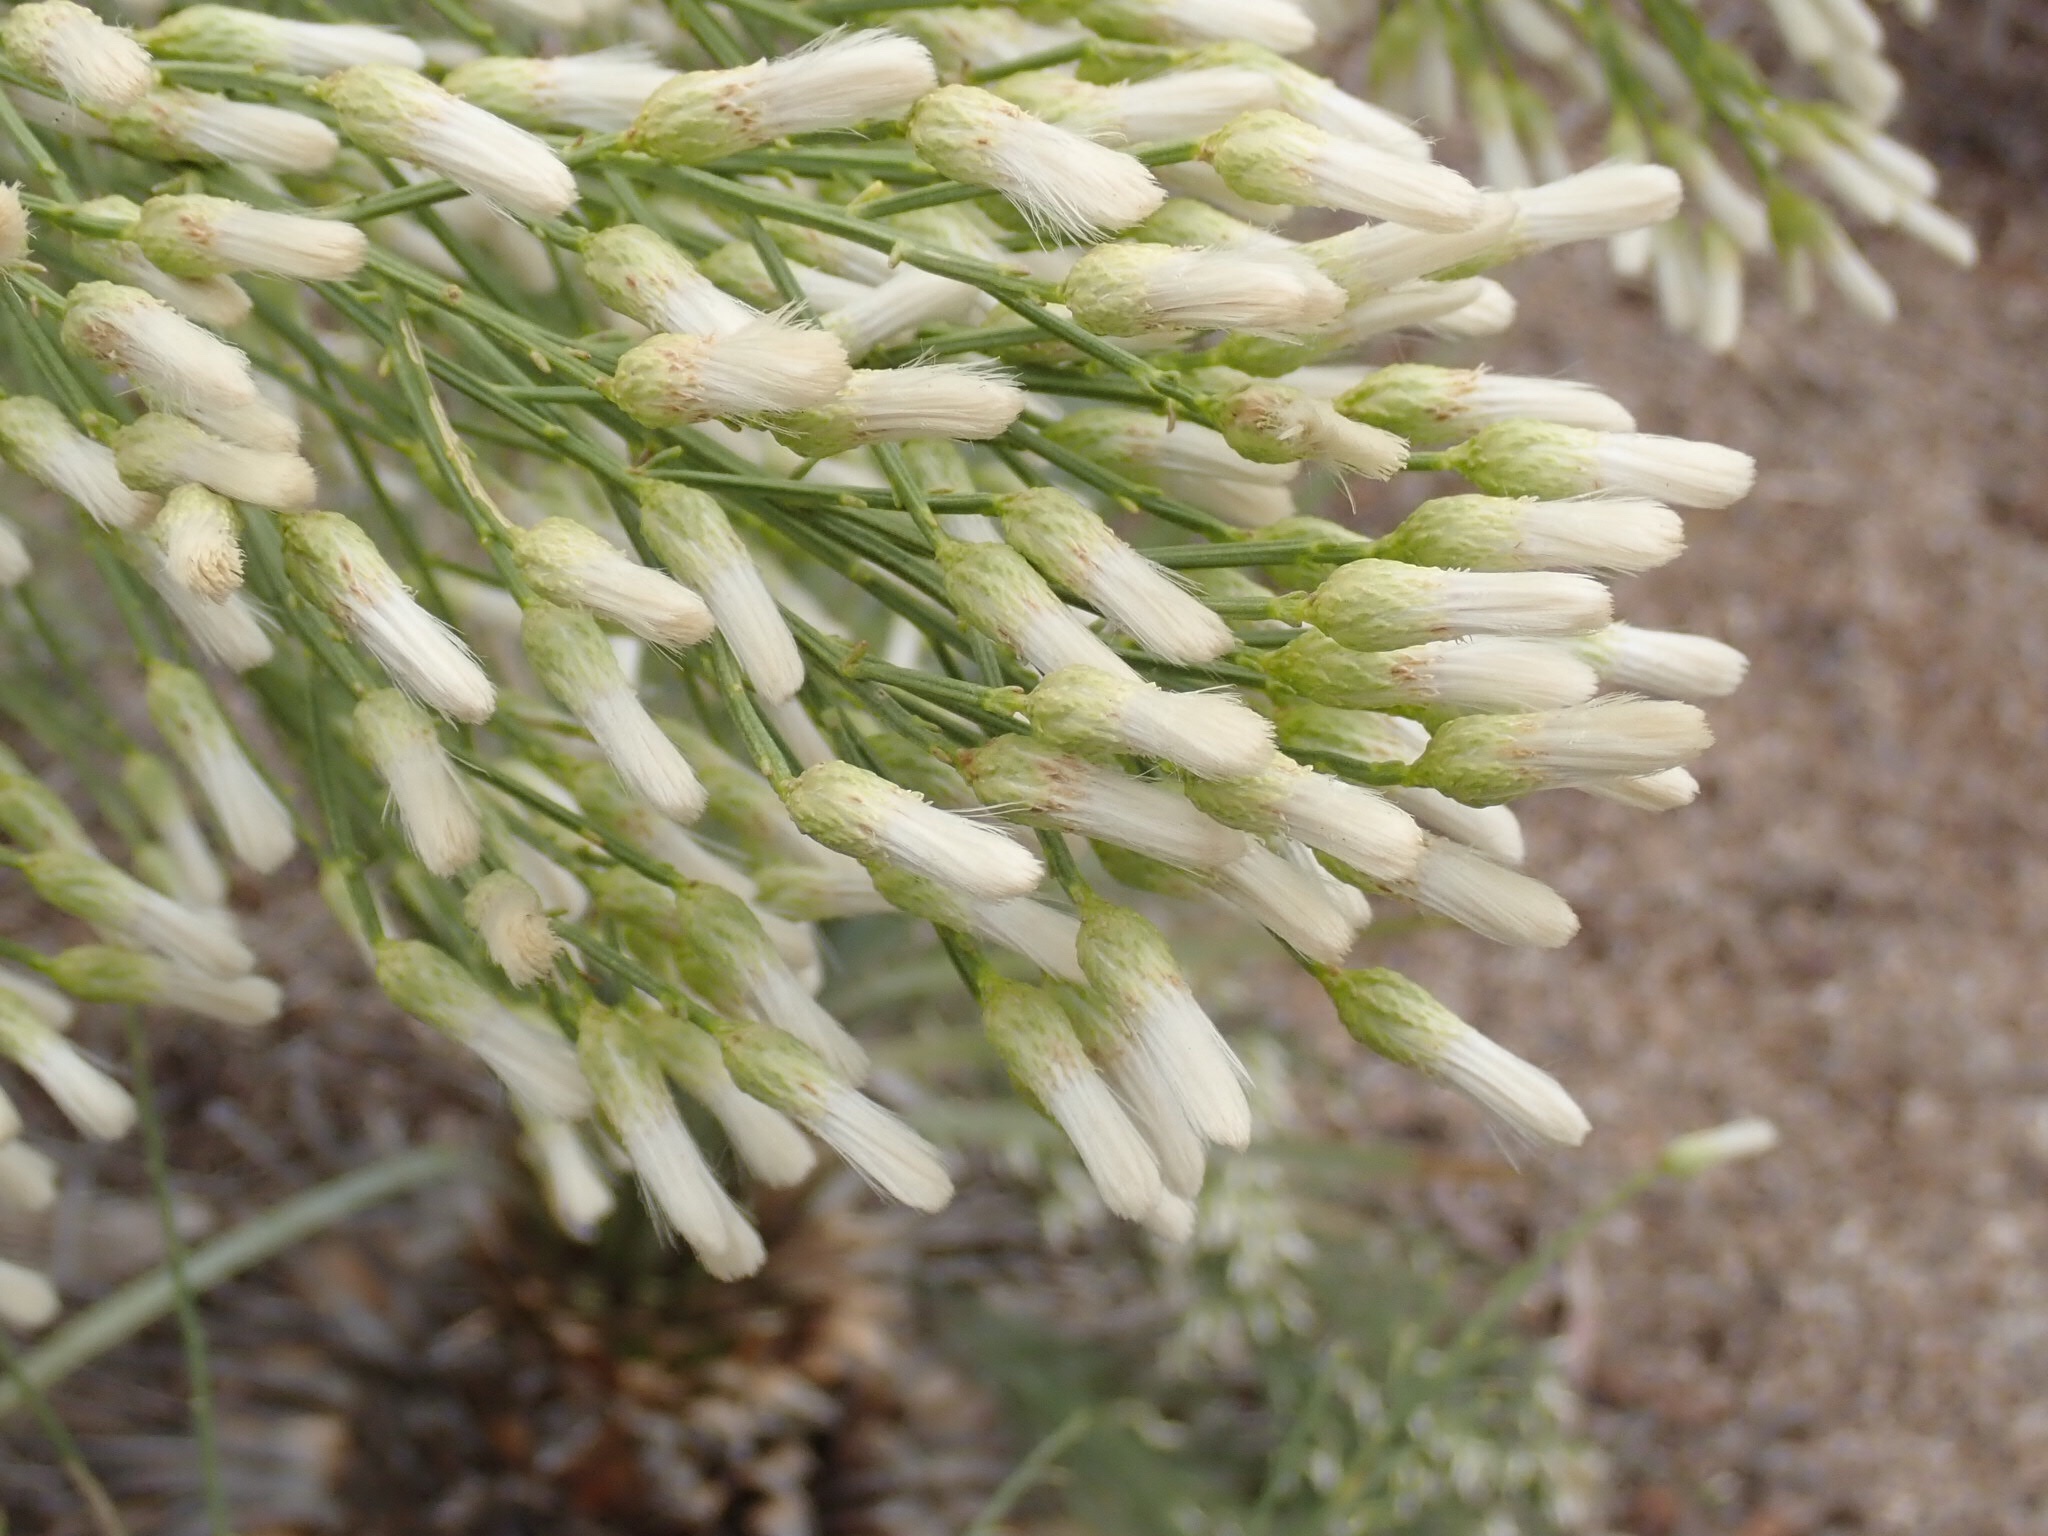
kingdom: Plantae
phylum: Tracheophyta
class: Magnoliopsida
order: Asterales
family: Asteraceae
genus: Baccharis
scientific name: Baccharis sarothroides
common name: Desert-broom
